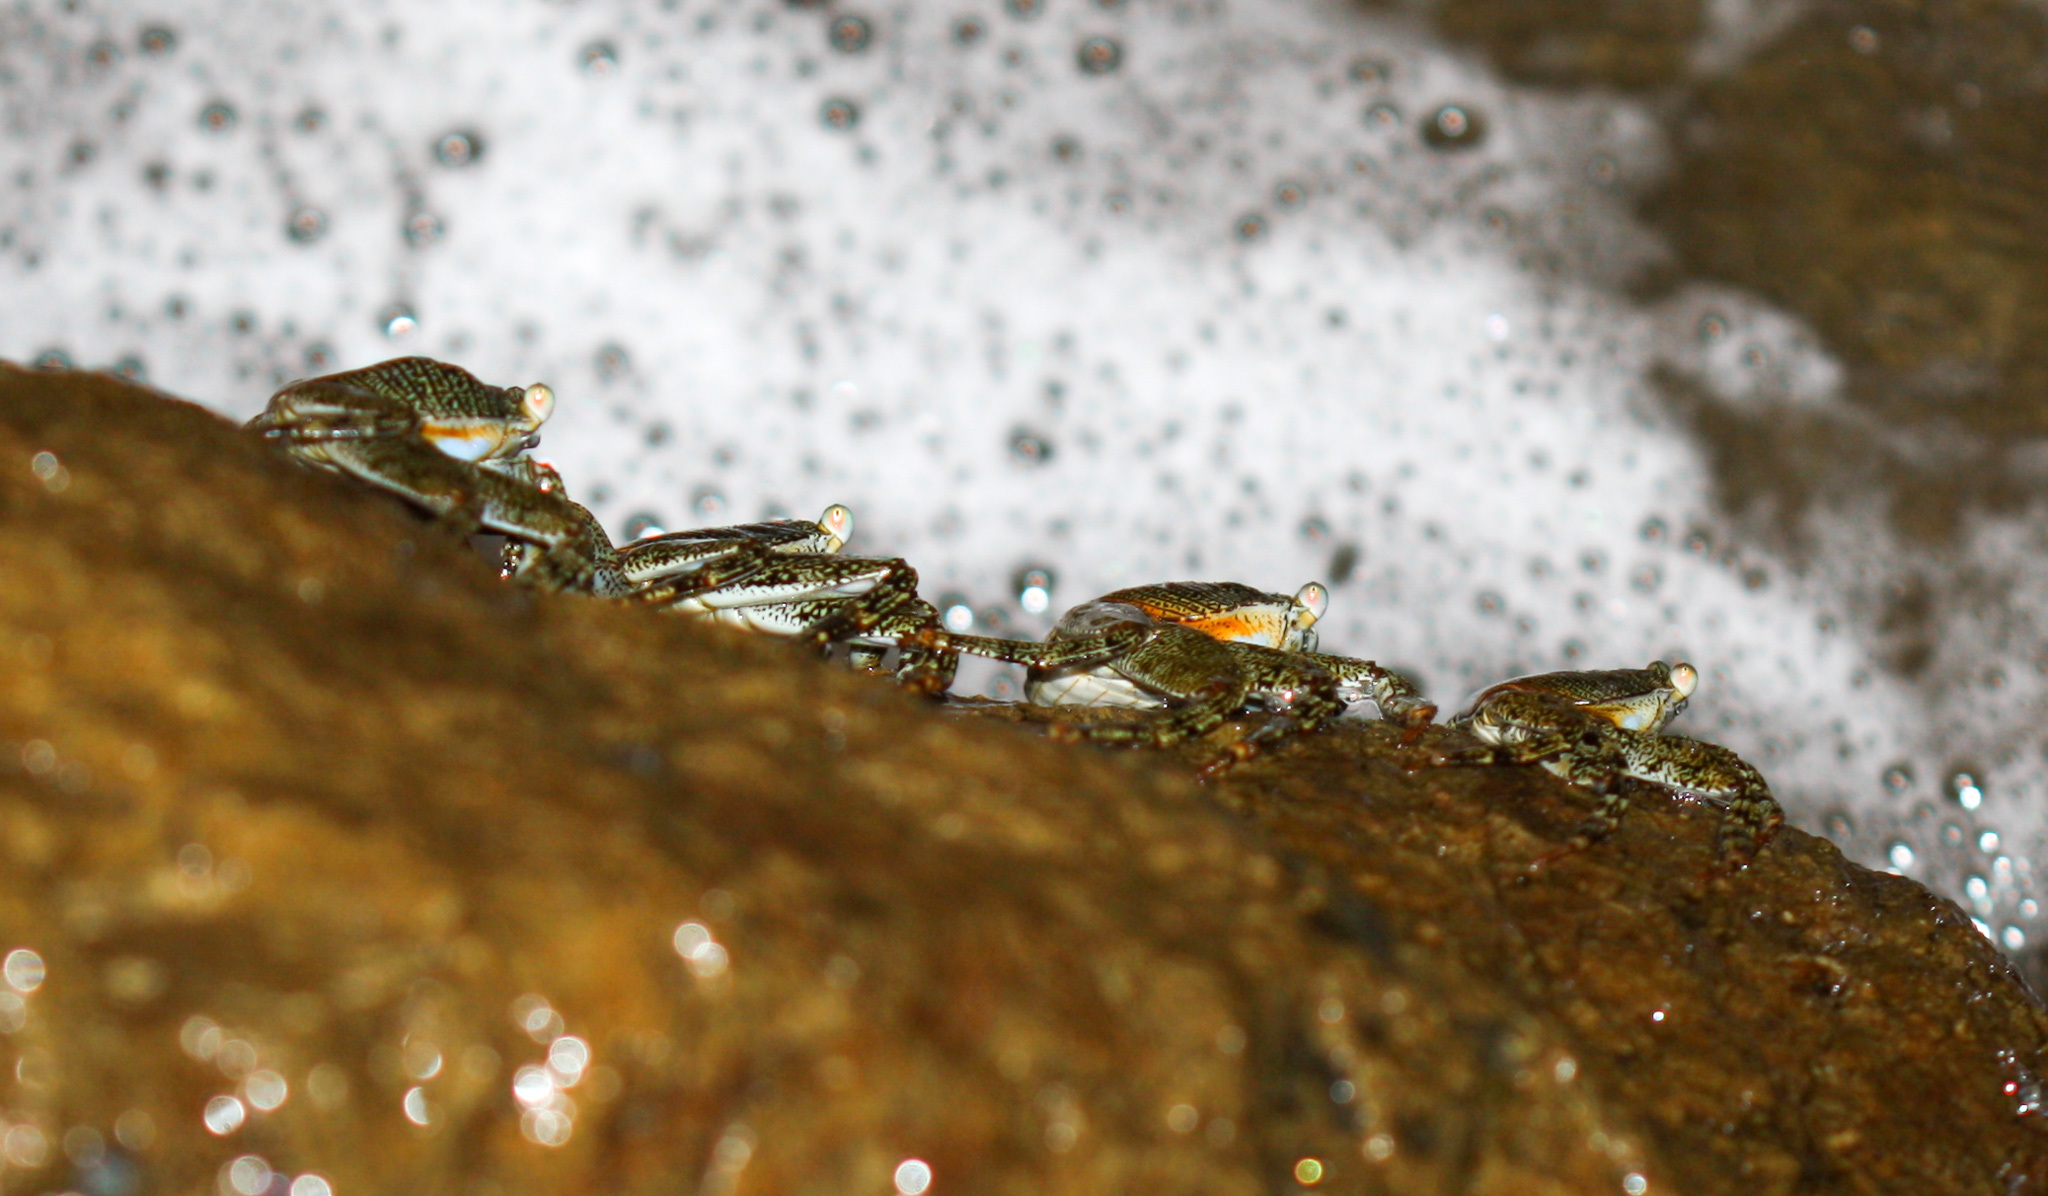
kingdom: Animalia
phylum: Arthropoda
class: Malacostraca
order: Decapoda
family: Grapsidae
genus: Grapsus
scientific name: Grapsus grapsus
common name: Sally lightfoot
